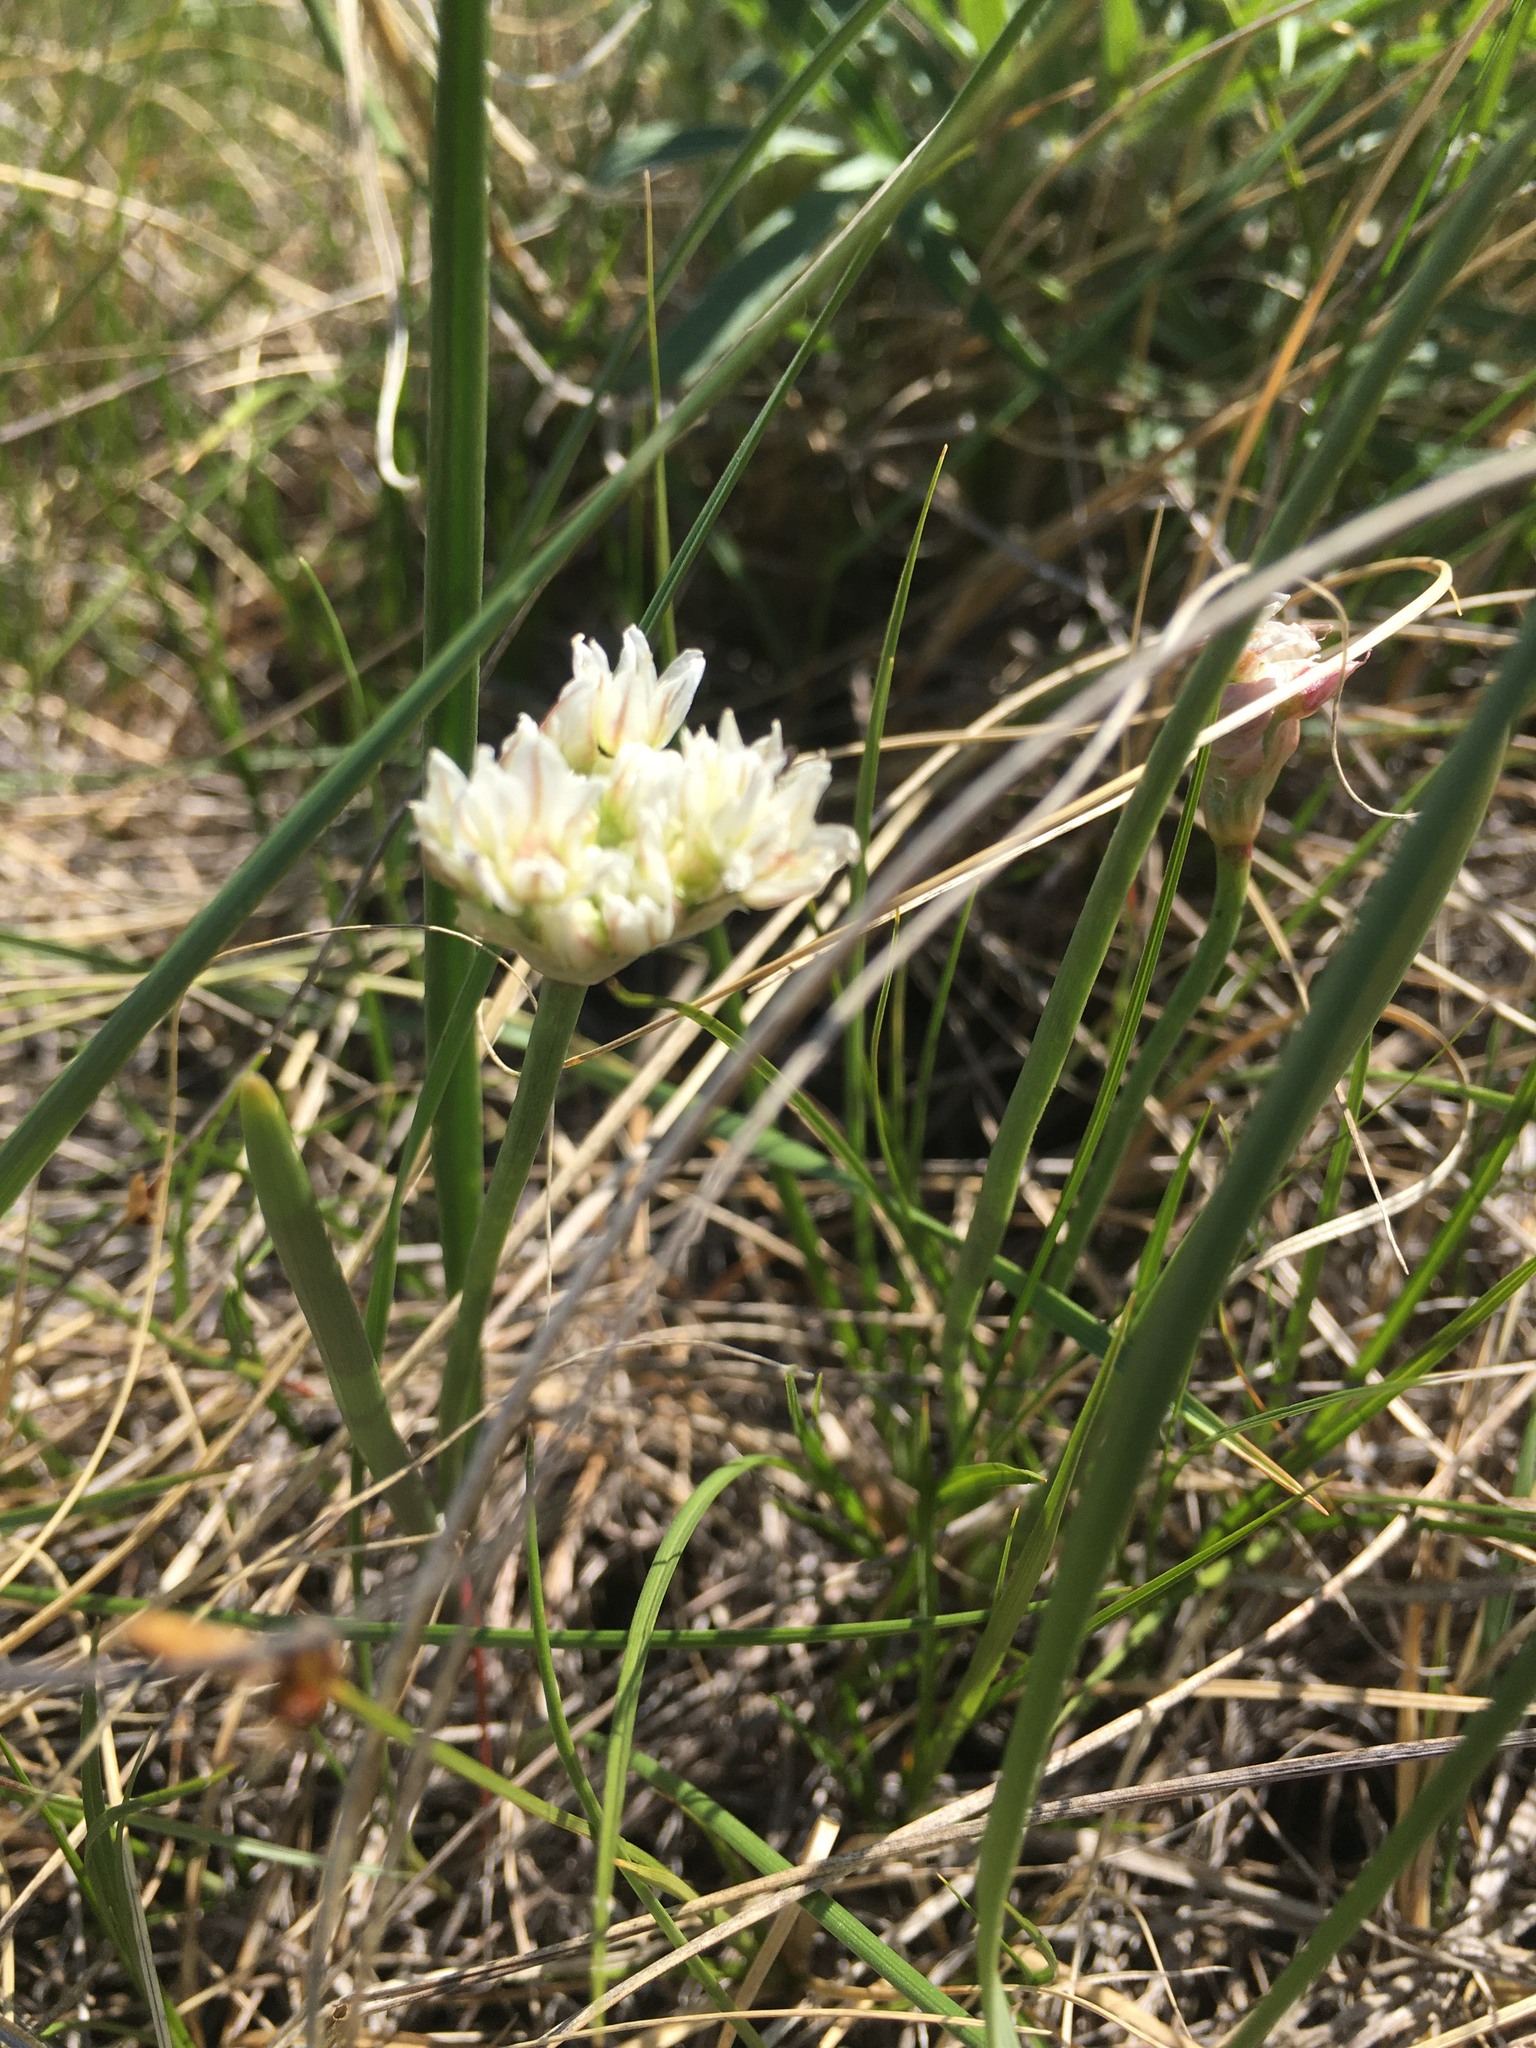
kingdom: Plantae
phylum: Tracheophyta
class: Liliopsida
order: Asparagales
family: Amaryllidaceae
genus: Allium
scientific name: Allium textile
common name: Prairie onion
